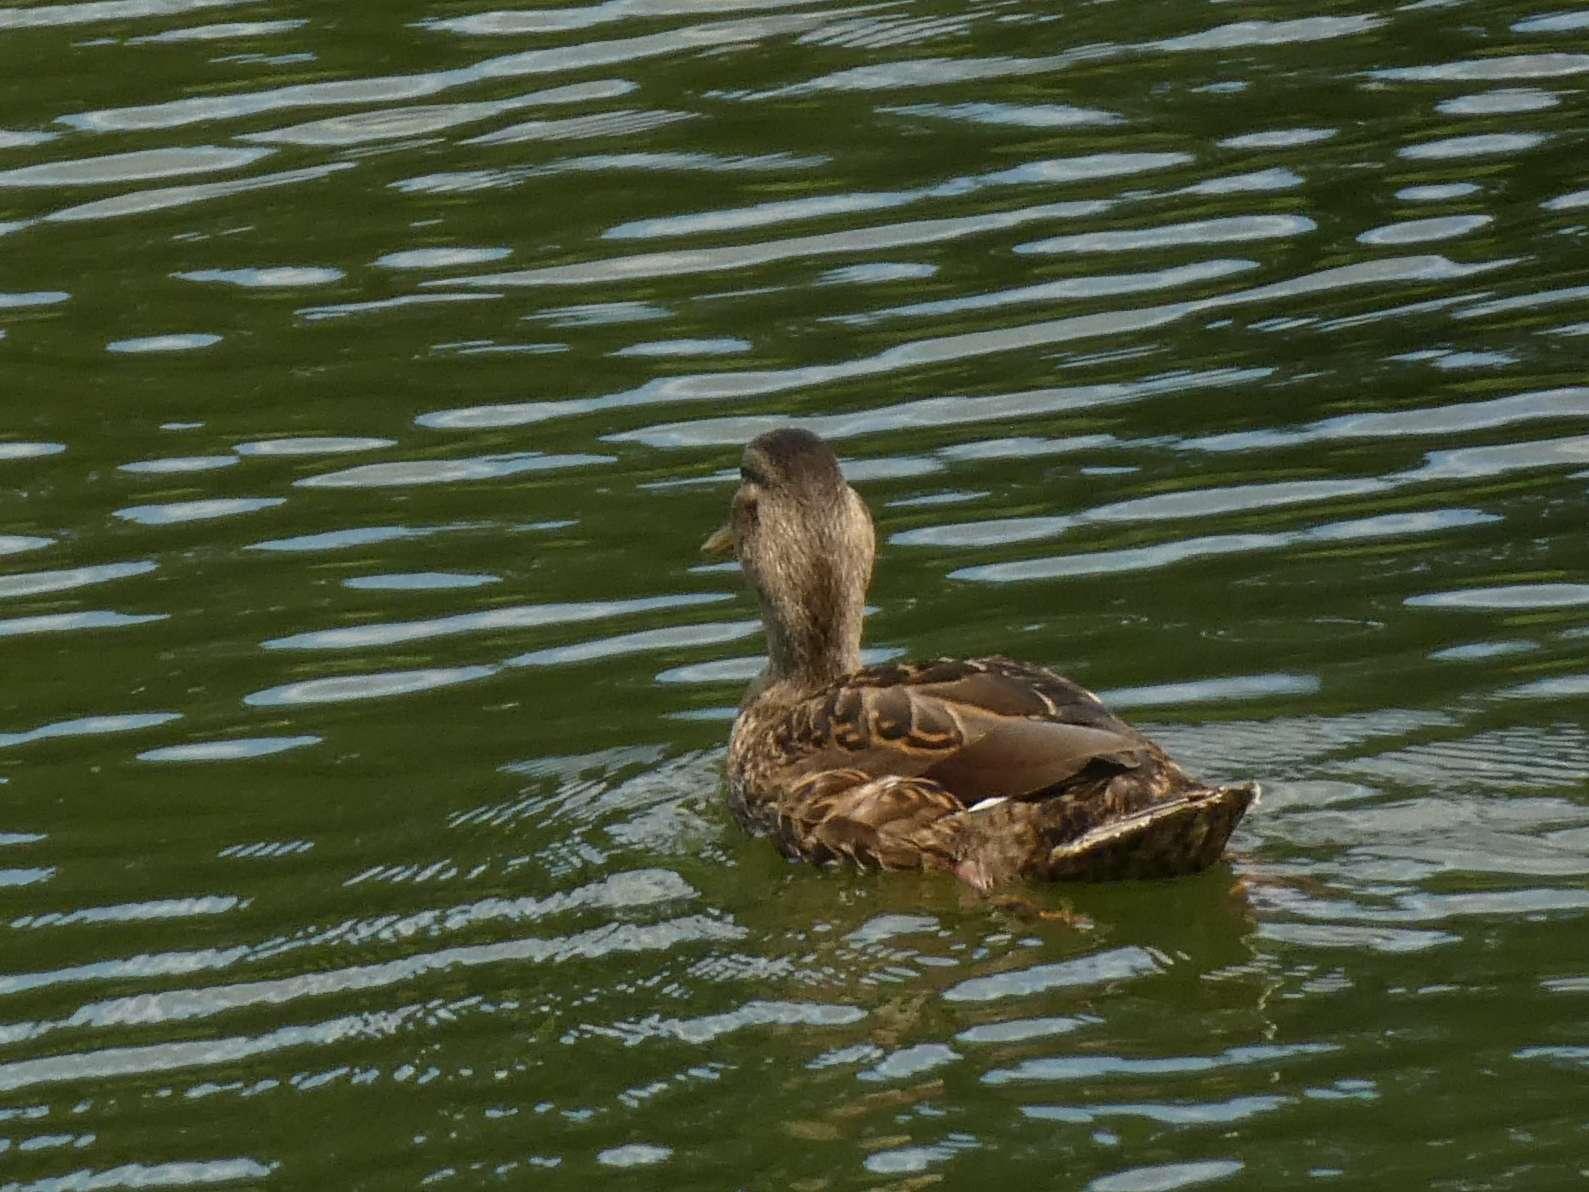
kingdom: Animalia
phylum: Chordata
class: Aves
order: Anseriformes
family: Anatidae
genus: Anas
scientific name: Anas platyrhynchos
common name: Mallard
